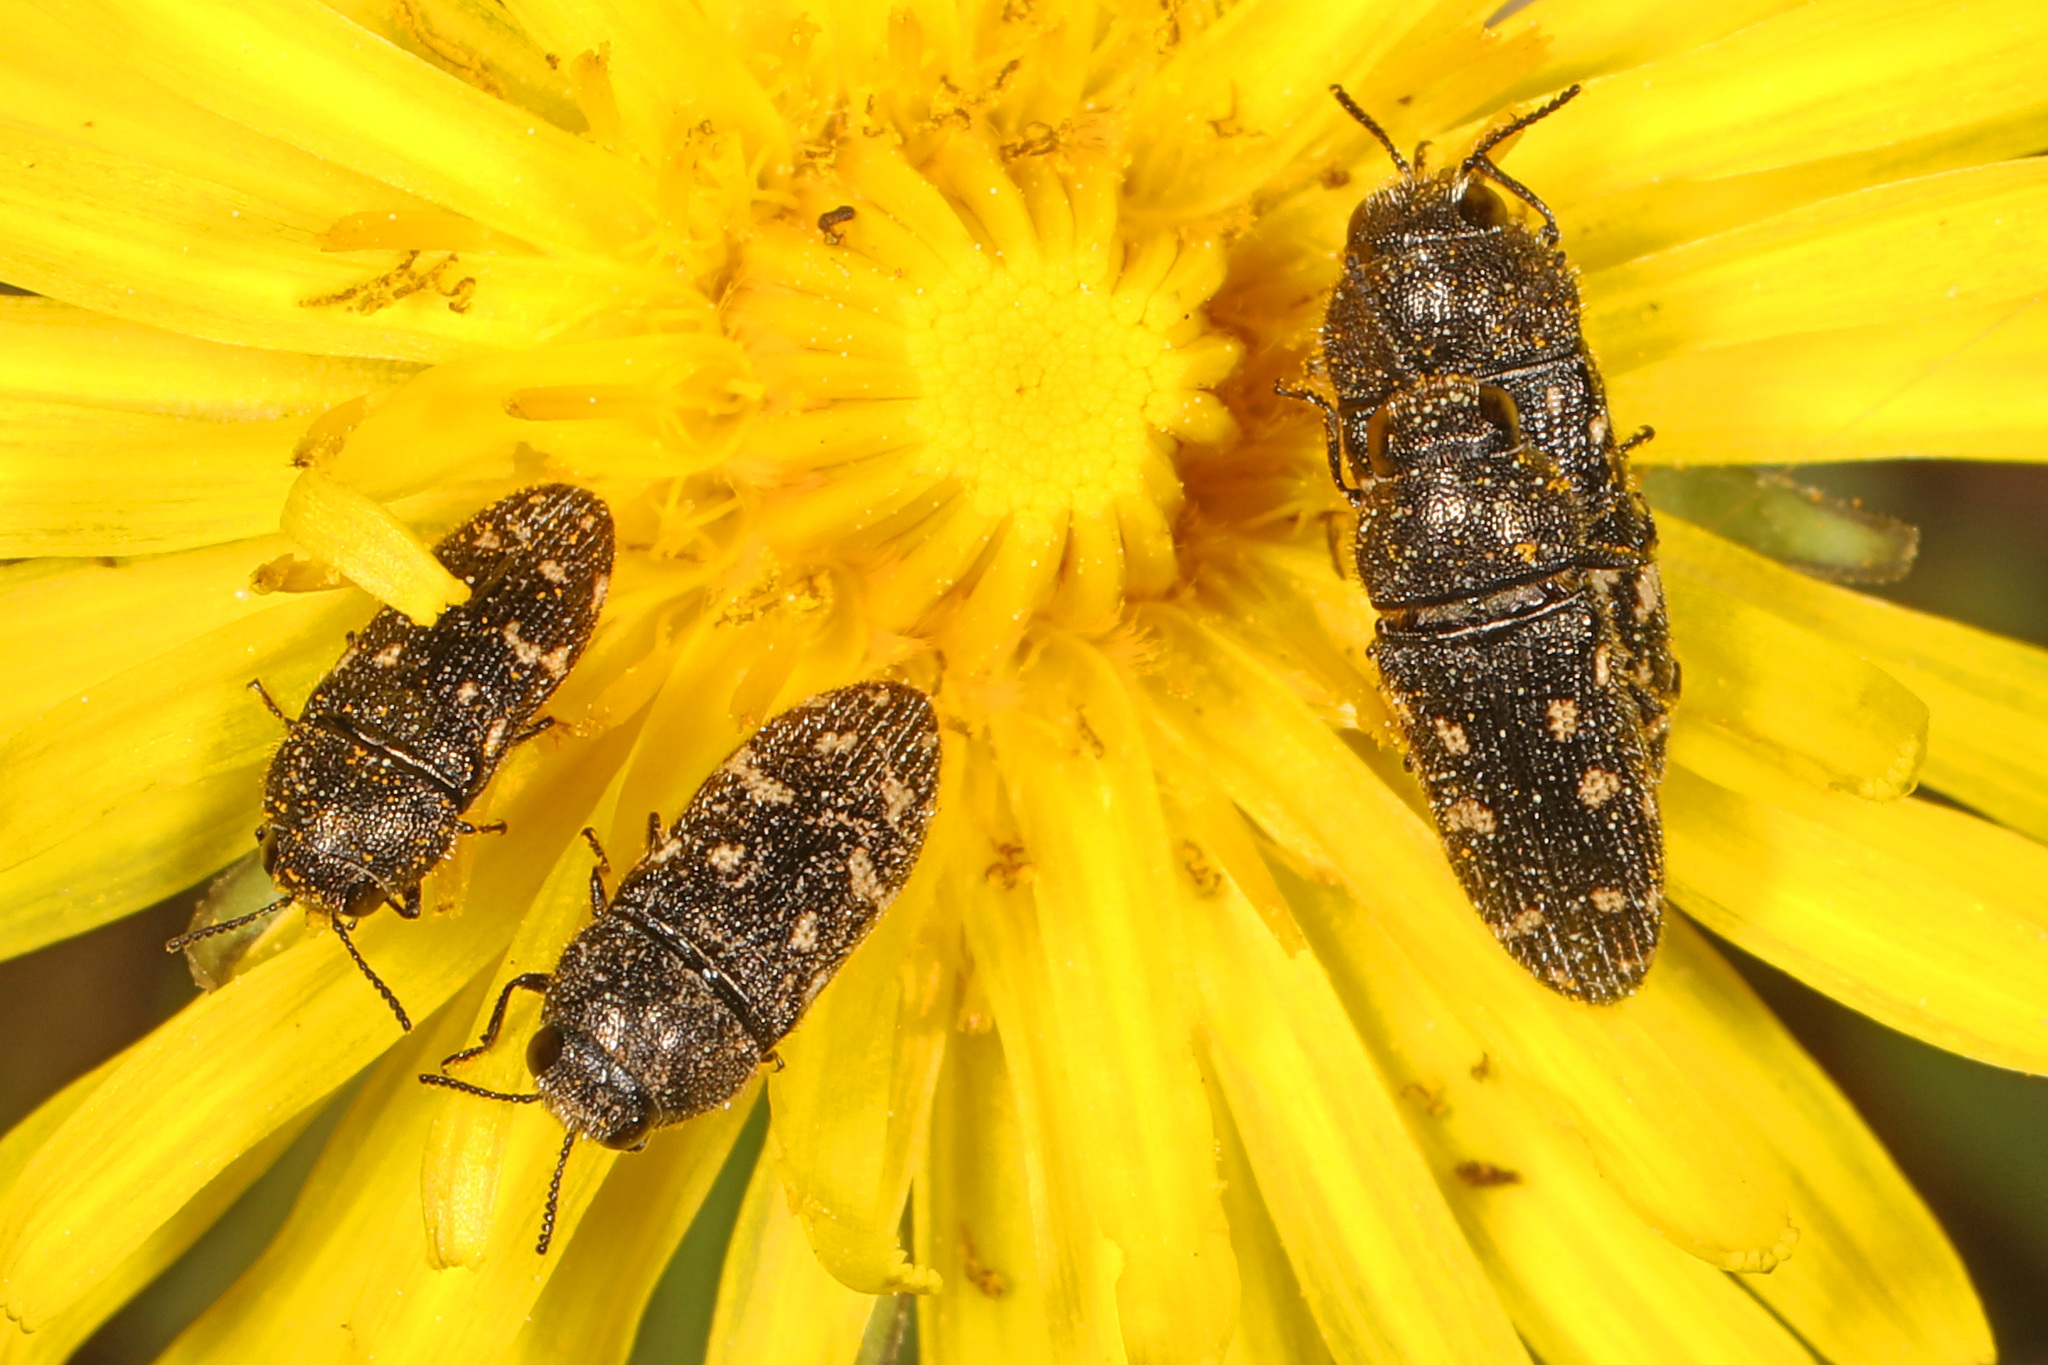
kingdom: Animalia
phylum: Arthropoda
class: Insecta
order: Coleoptera
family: Buprestidae
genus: Acmaeodera
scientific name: Acmaeodera tubulus
